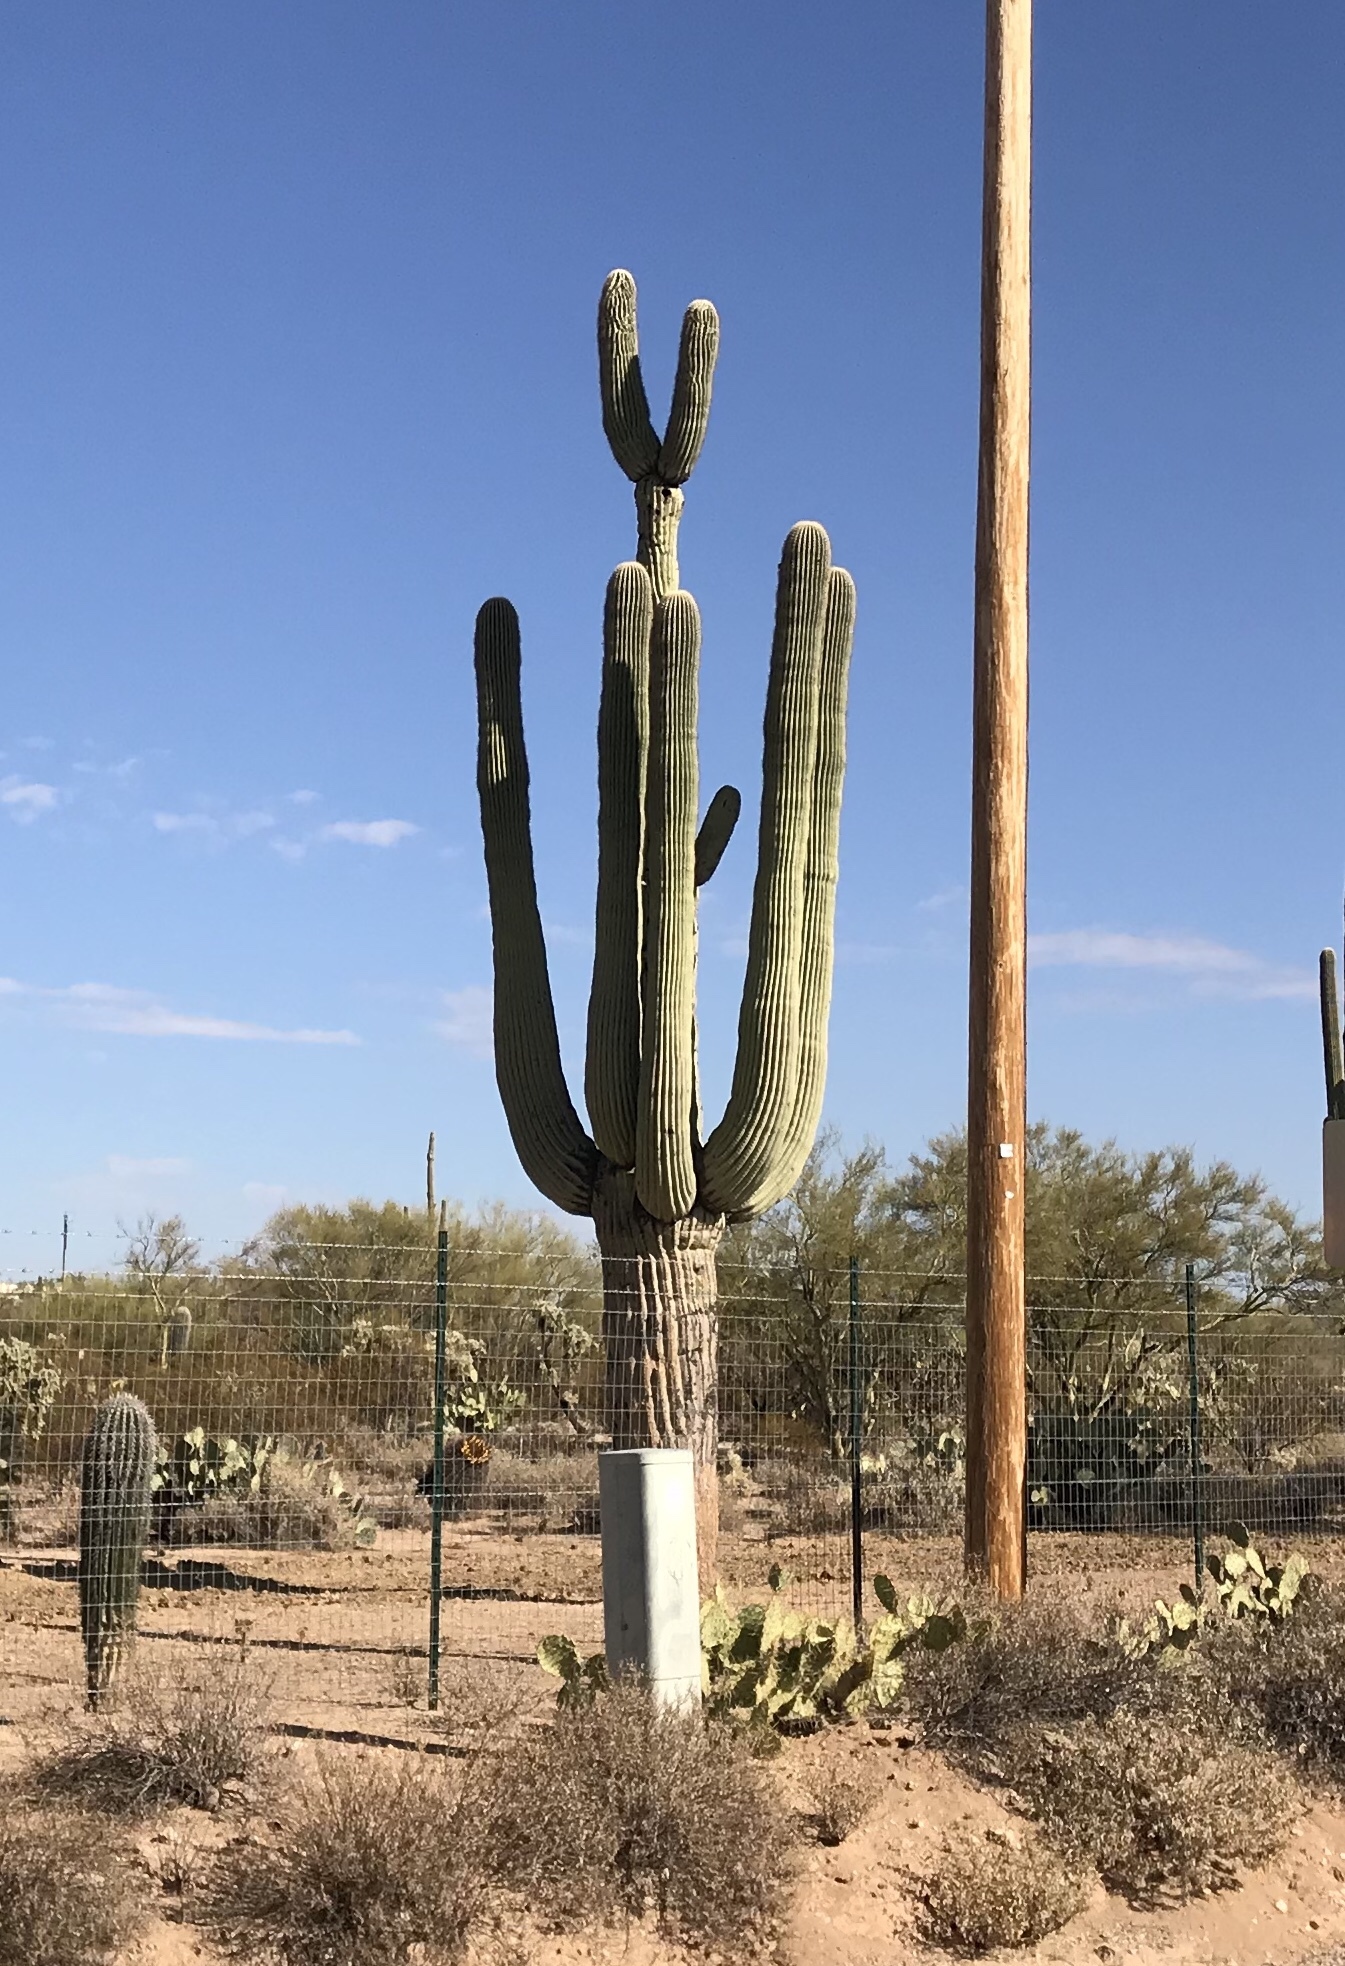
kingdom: Plantae
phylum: Tracheophyta
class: Magnoliopsida
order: Caryophyllales
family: Cactaceae
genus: Carnegiea
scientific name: Carnegiea gigantea
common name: Saguaro
